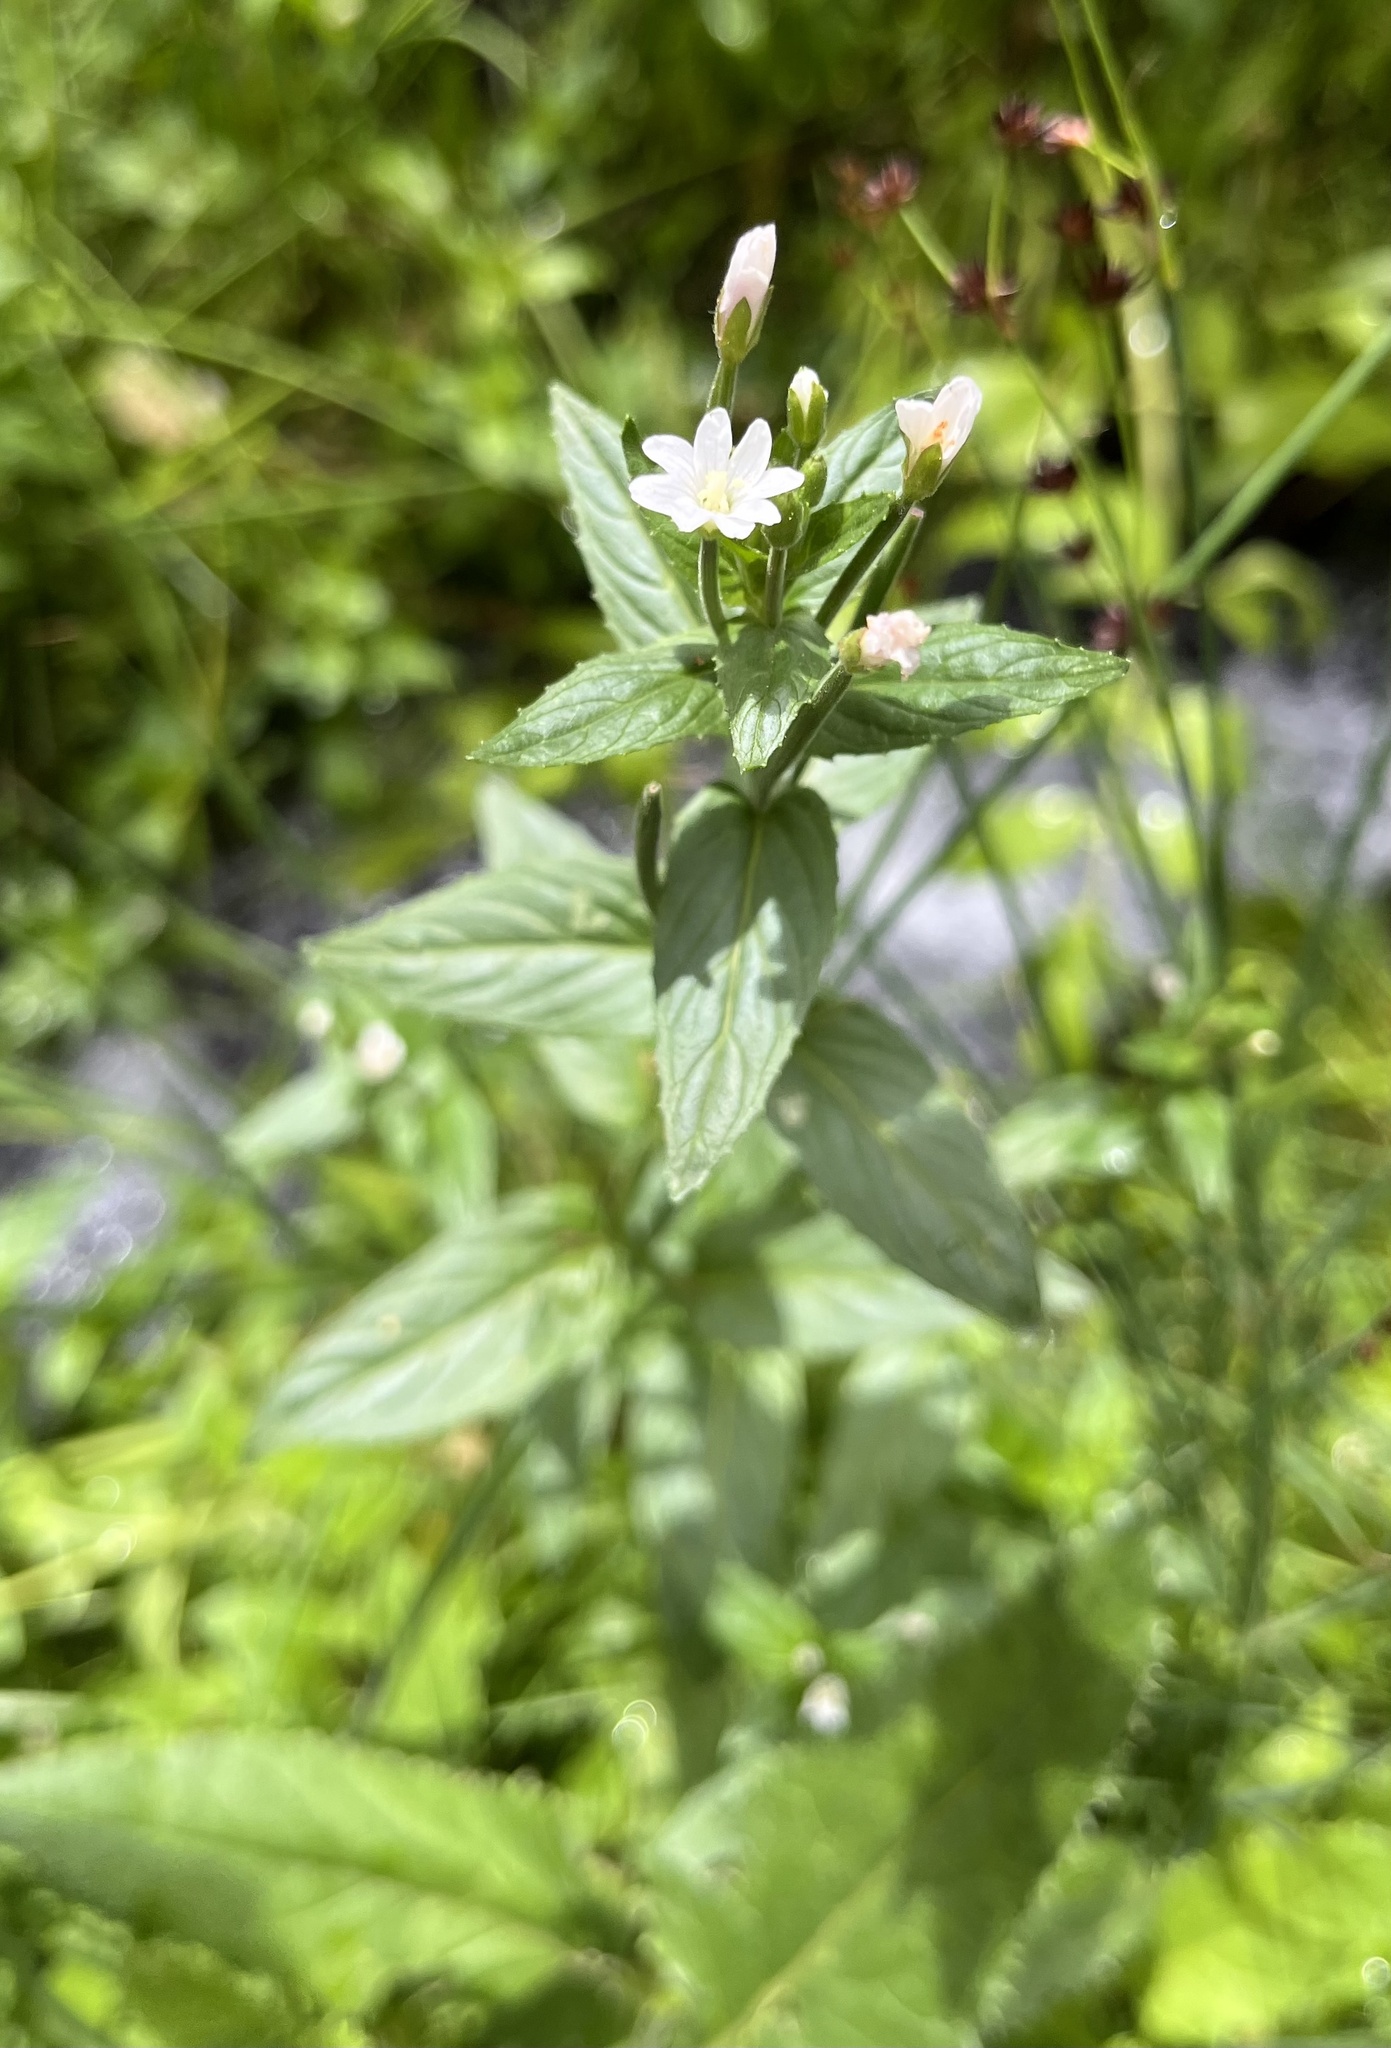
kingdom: Plantae
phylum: Tracheophyta
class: Magnoliopsida
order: Myrtales
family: Onagraceae
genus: Epilobium
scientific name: Epilobium ciliatum
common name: American willowherb
